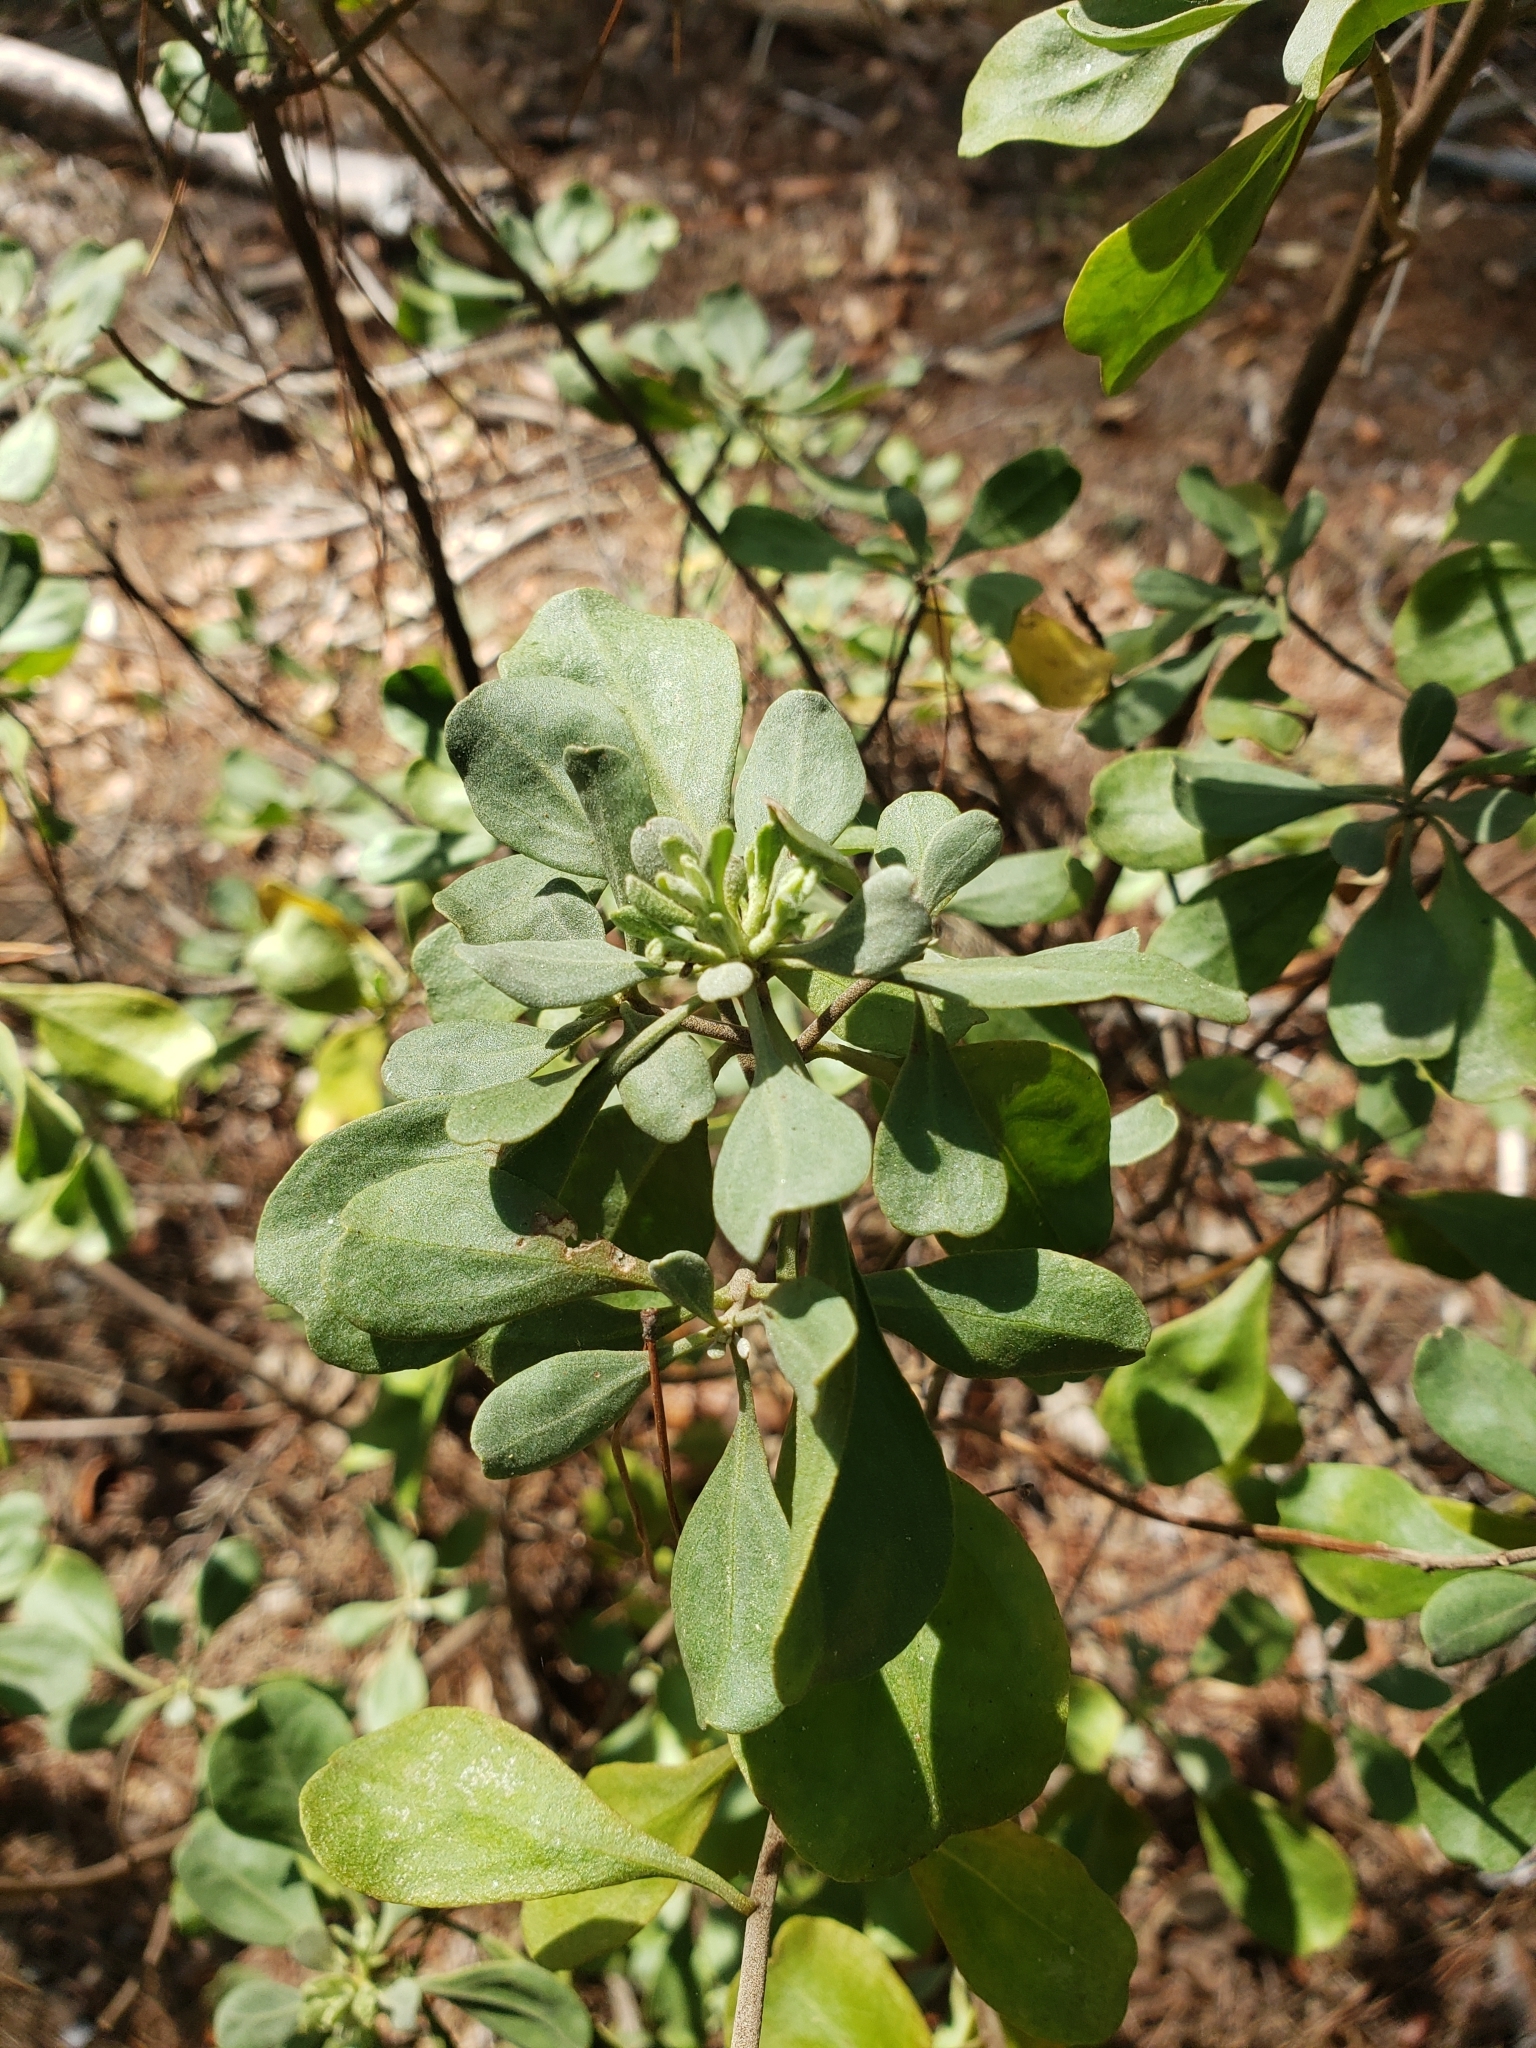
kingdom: Plantae
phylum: Tracheophyta
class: Magnoliopsida
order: Asterales
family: Asteraceae
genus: Garberia
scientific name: Garberia heterophylla
